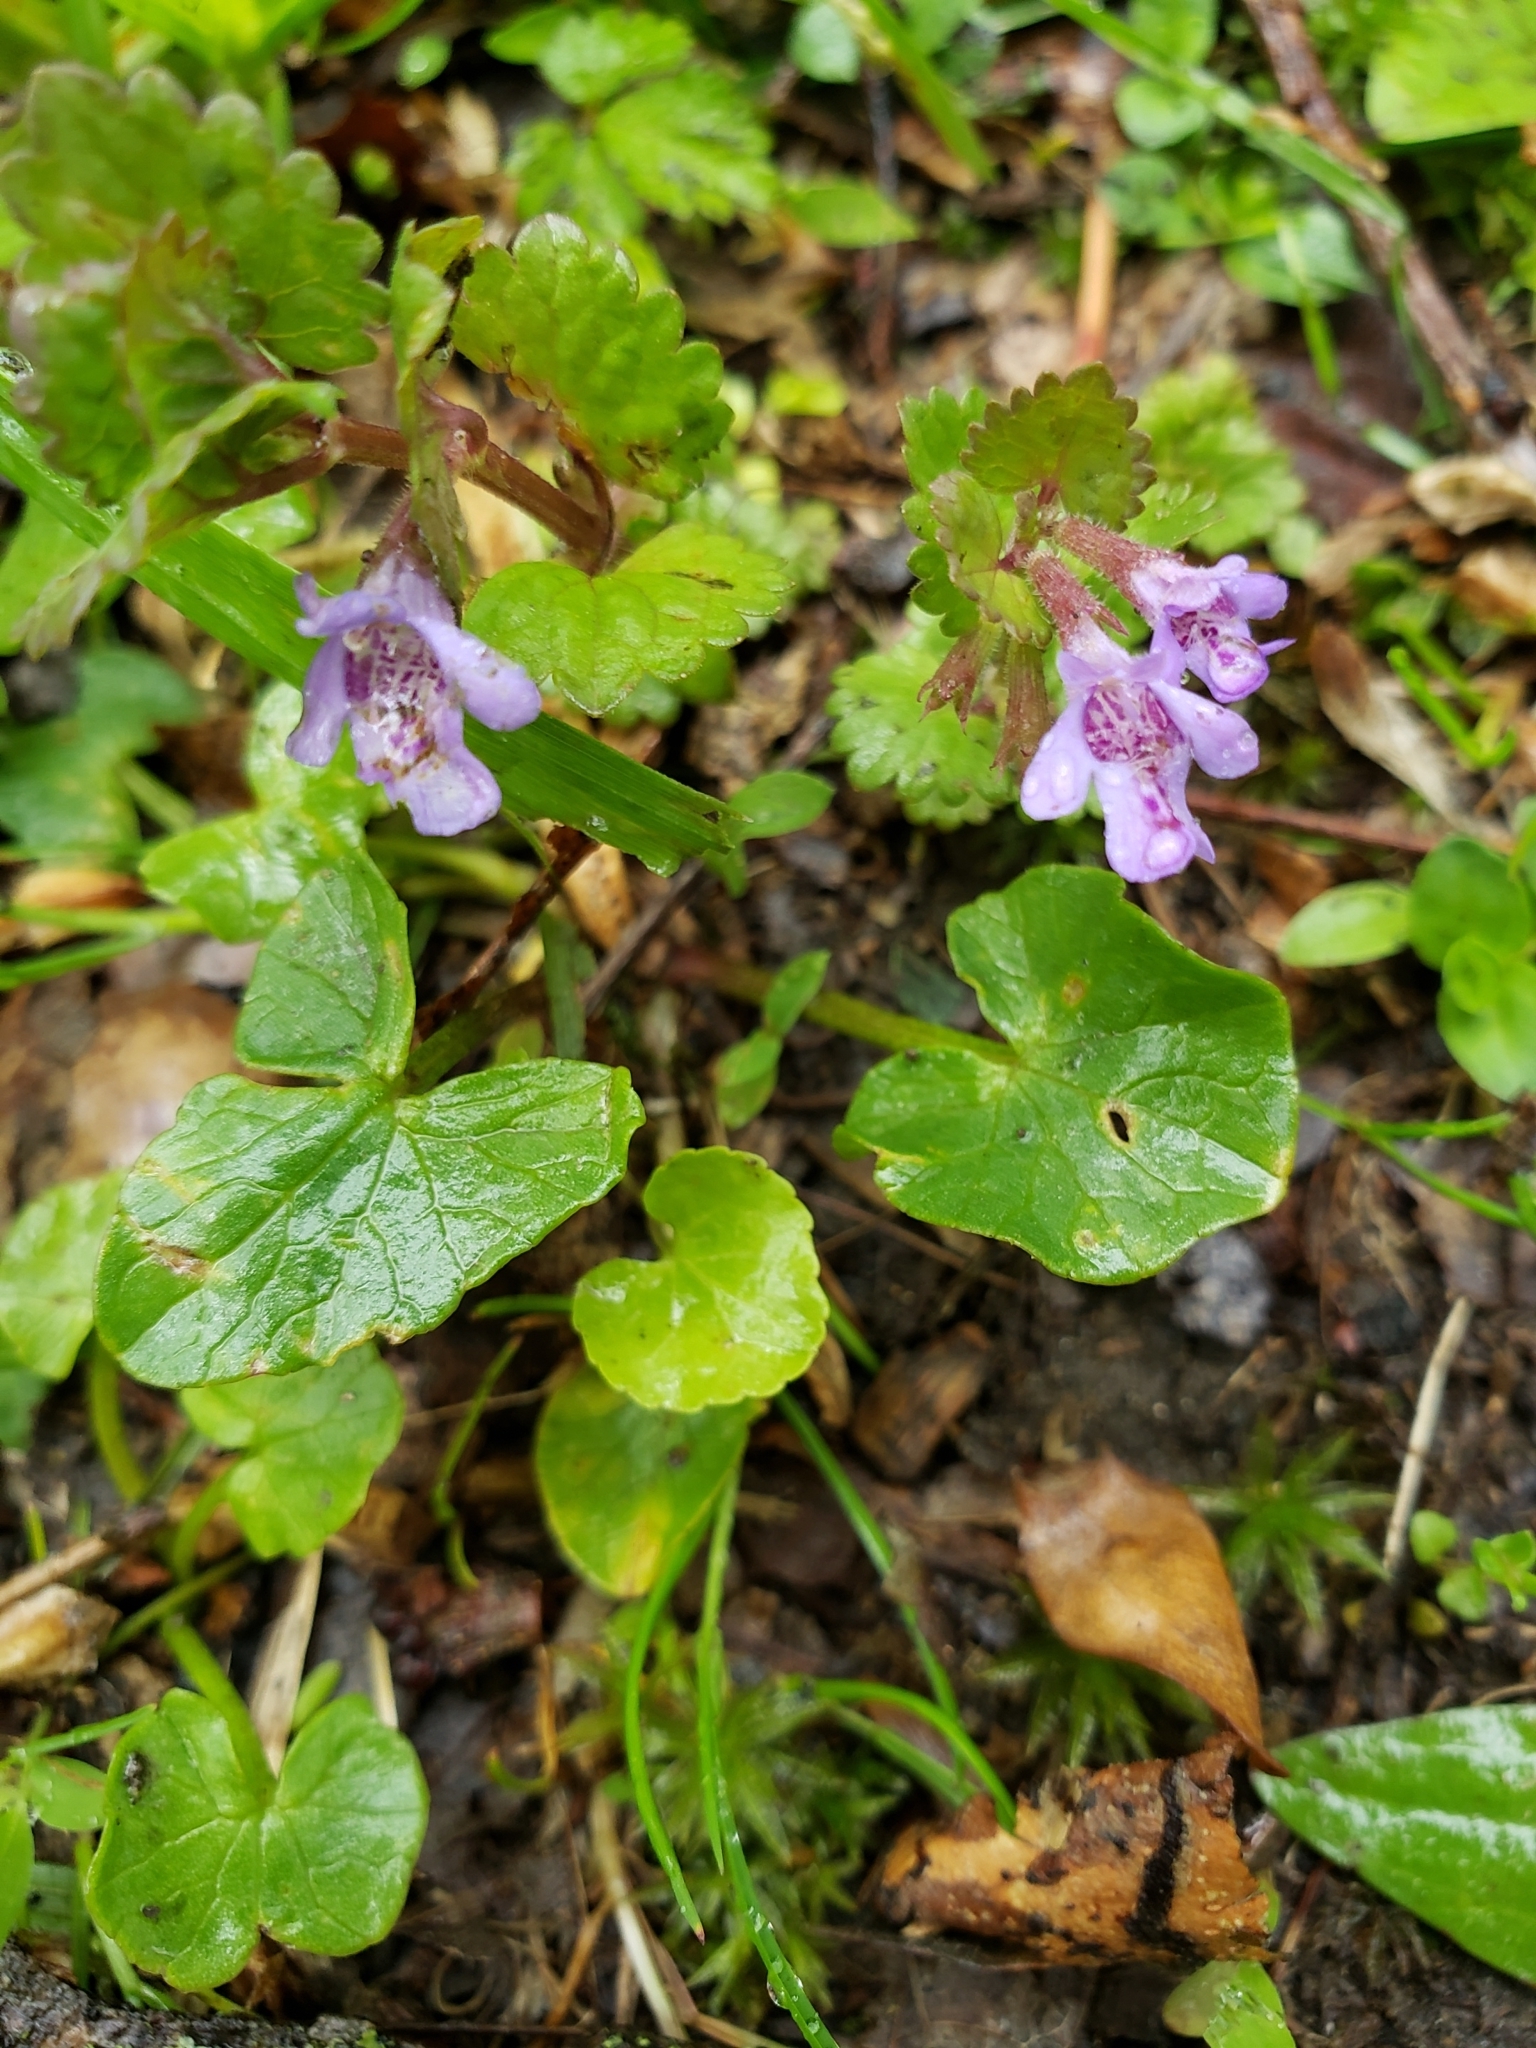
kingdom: Plantae
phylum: Tracheophyta
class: Magnoliopsida
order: Lamiales
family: Lamiaceae
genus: Glechoma
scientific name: Glechoma hederacea
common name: Ground ivy
